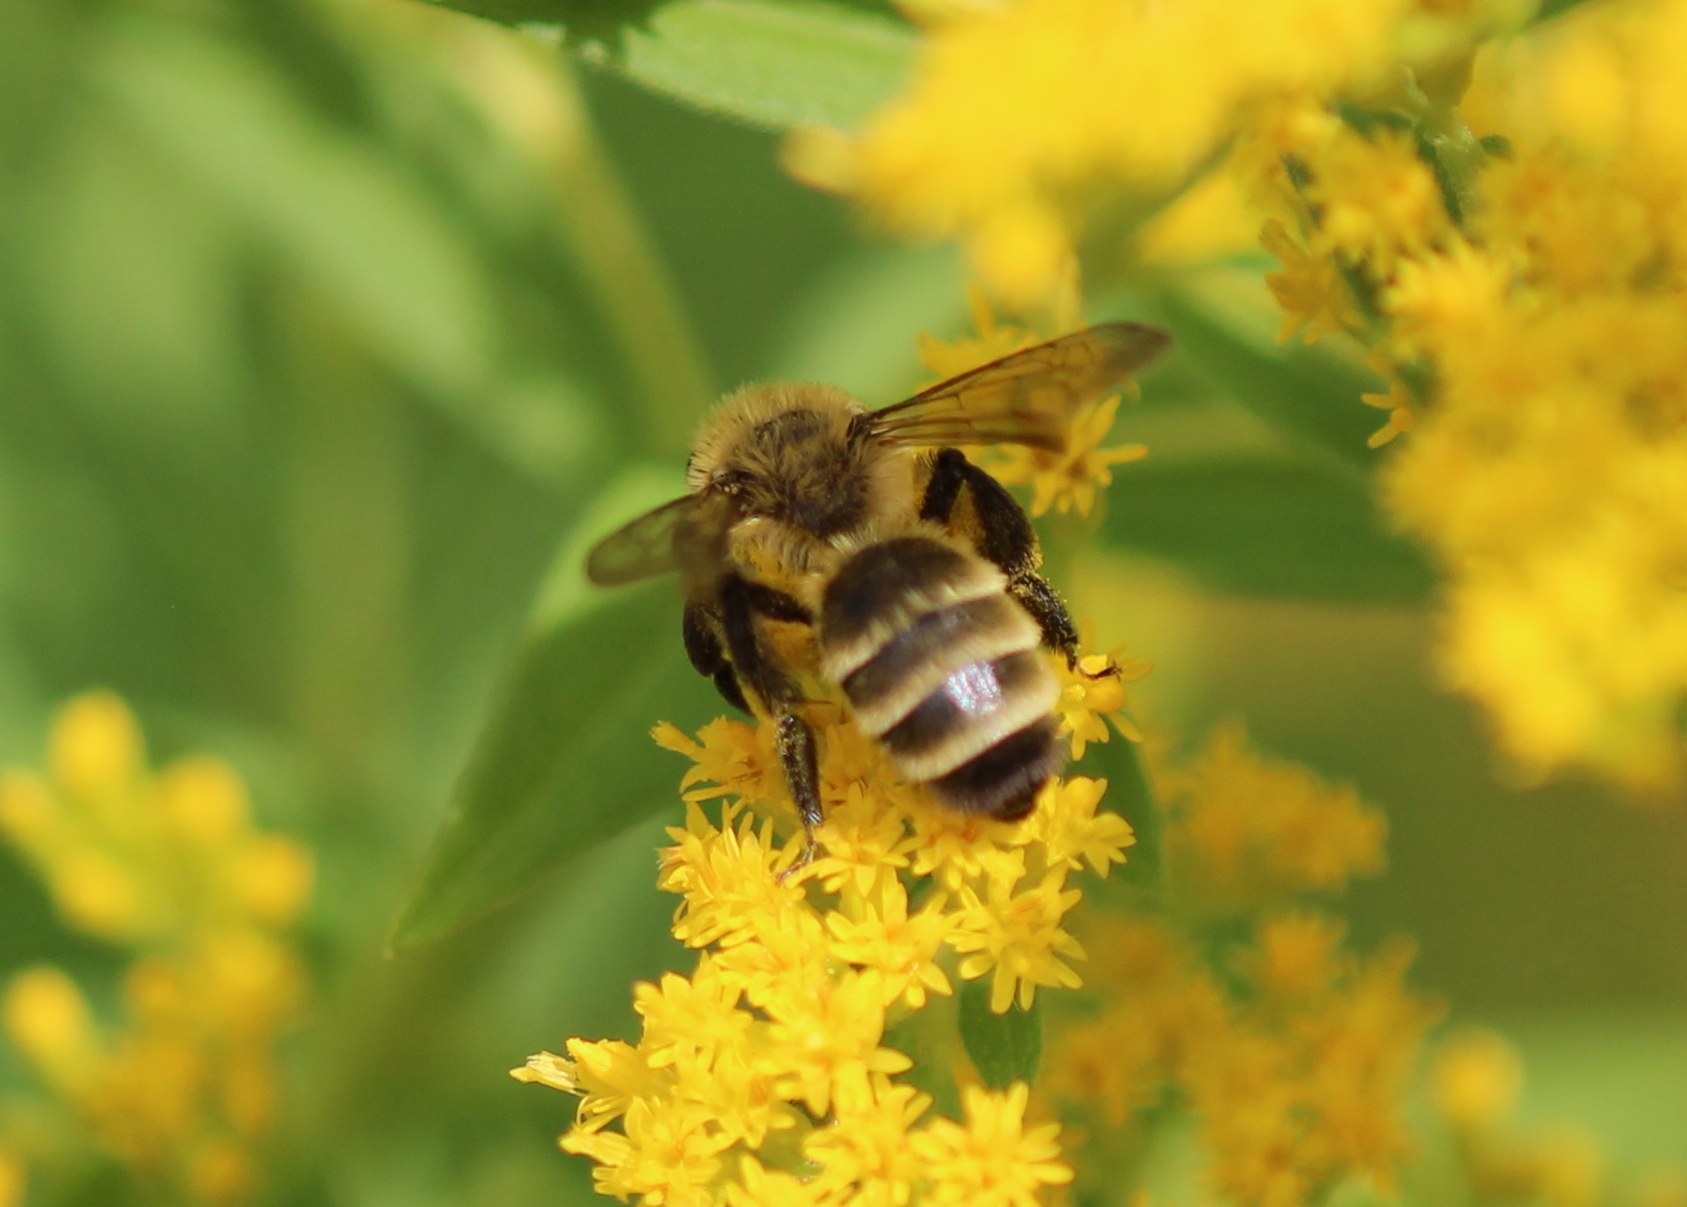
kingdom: Animalia
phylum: Arthropoda
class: Insecta
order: Hymenoptera
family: Andrenidae
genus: Andrena
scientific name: Andrena hirticincta
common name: Hairy-banded mining bee
